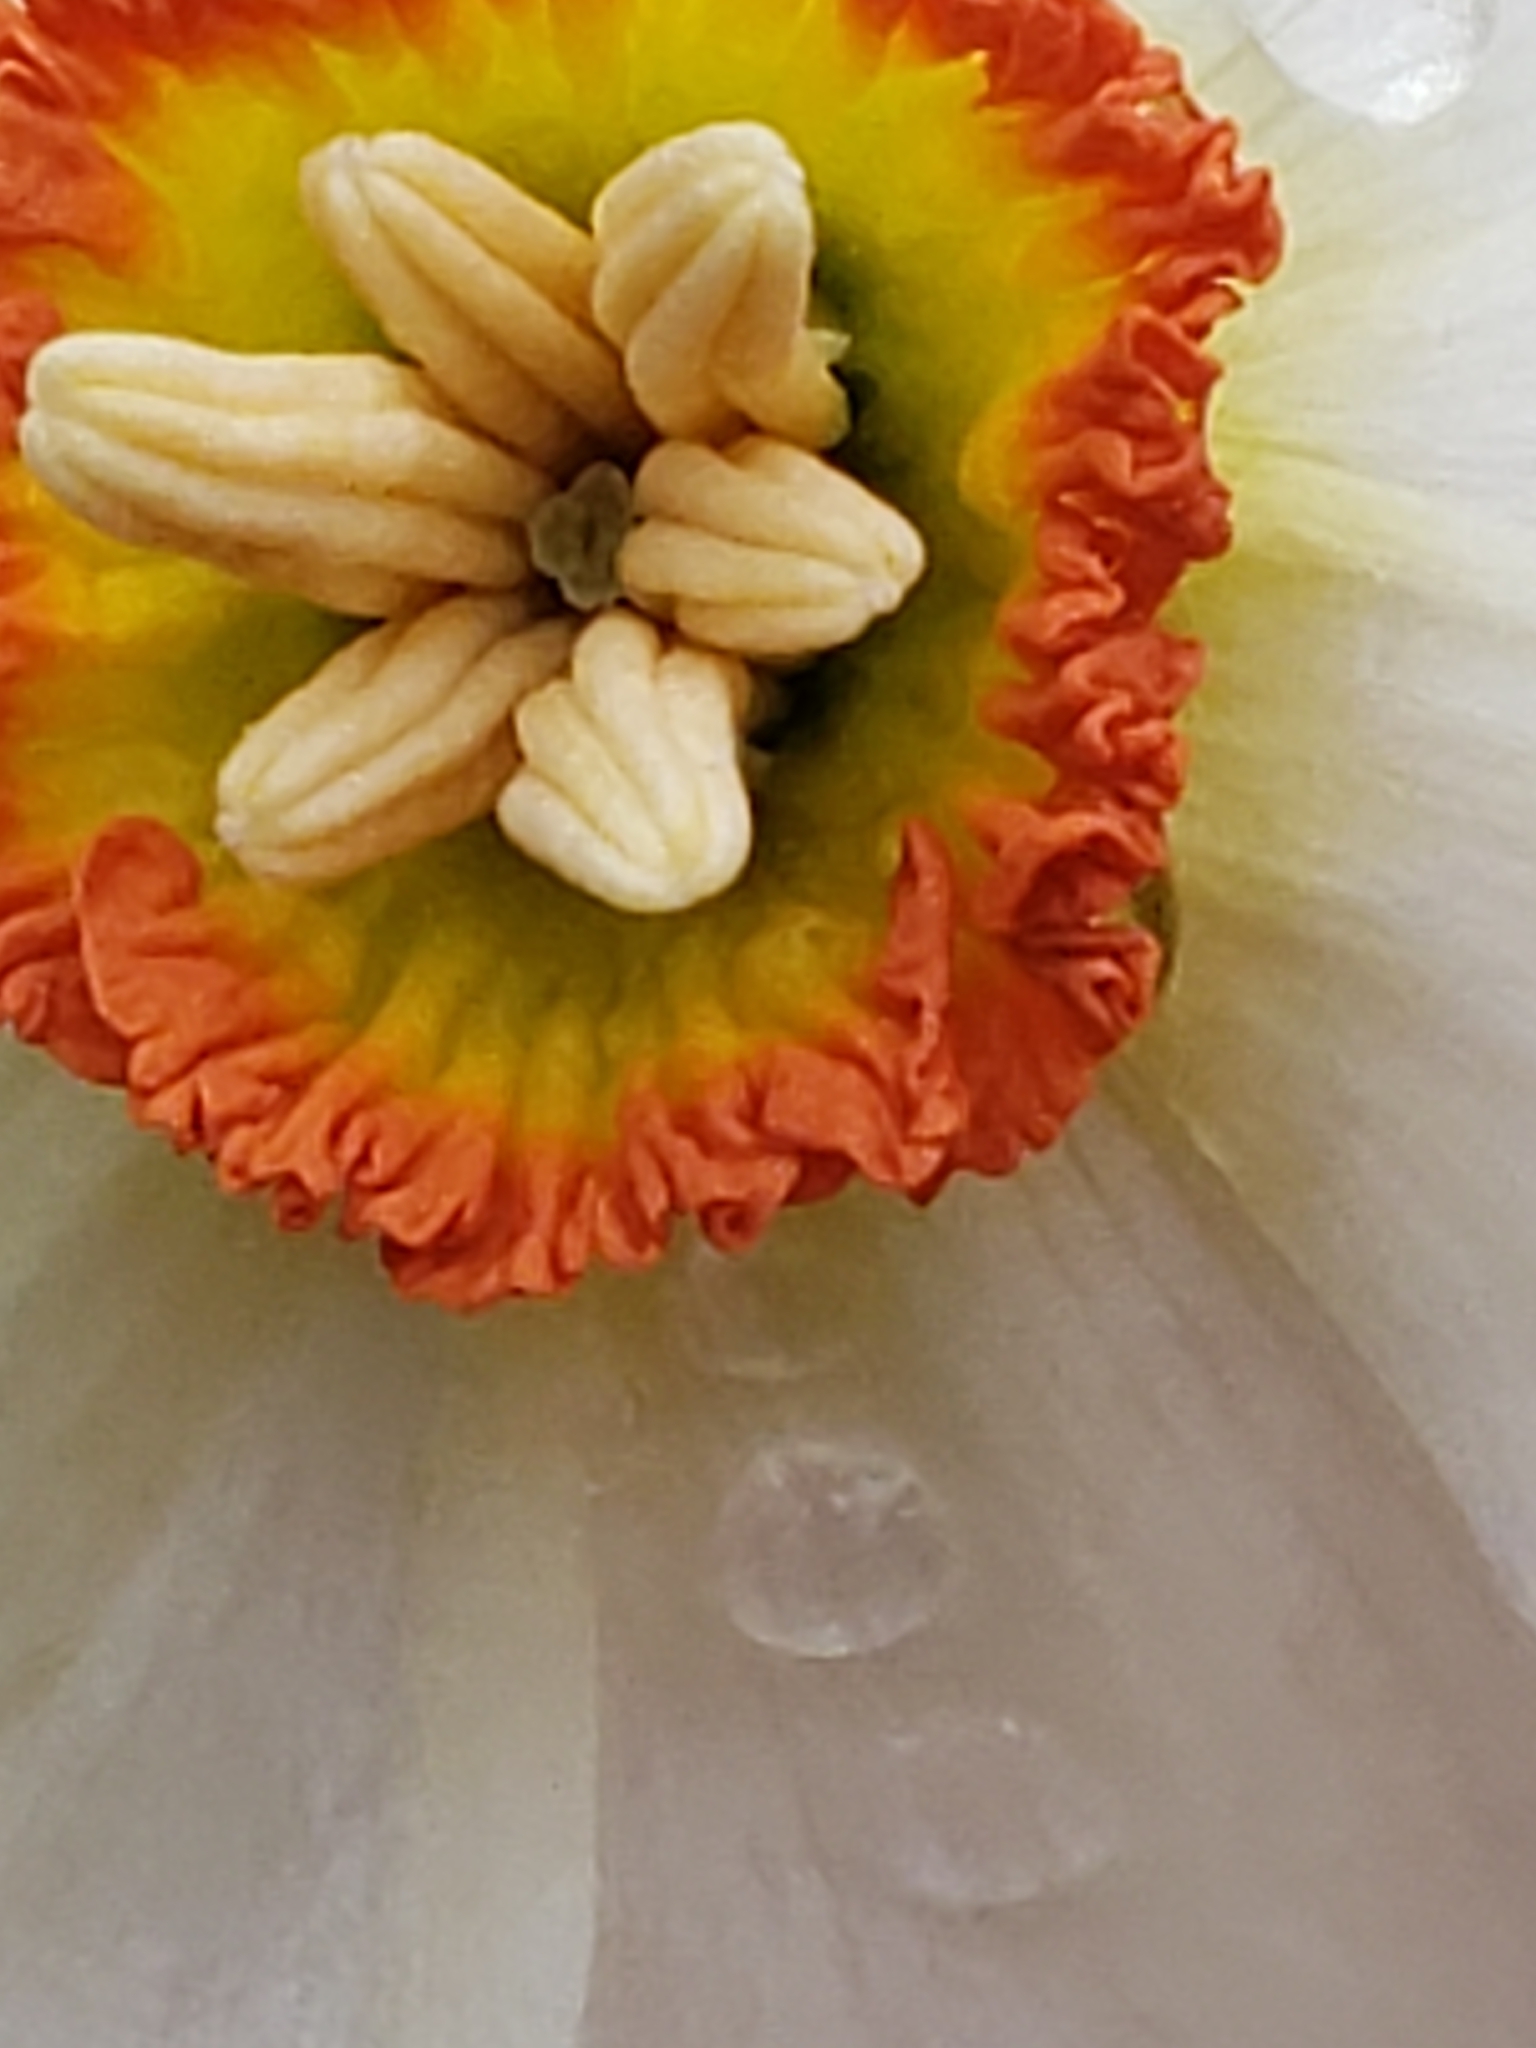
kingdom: Plantae
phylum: Tracheophyta
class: Liliopsida
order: Asparagales
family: Amaryllidaceae
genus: Narcissus
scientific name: Narcissus poeticus
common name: Pheasant's-eye daffodil
